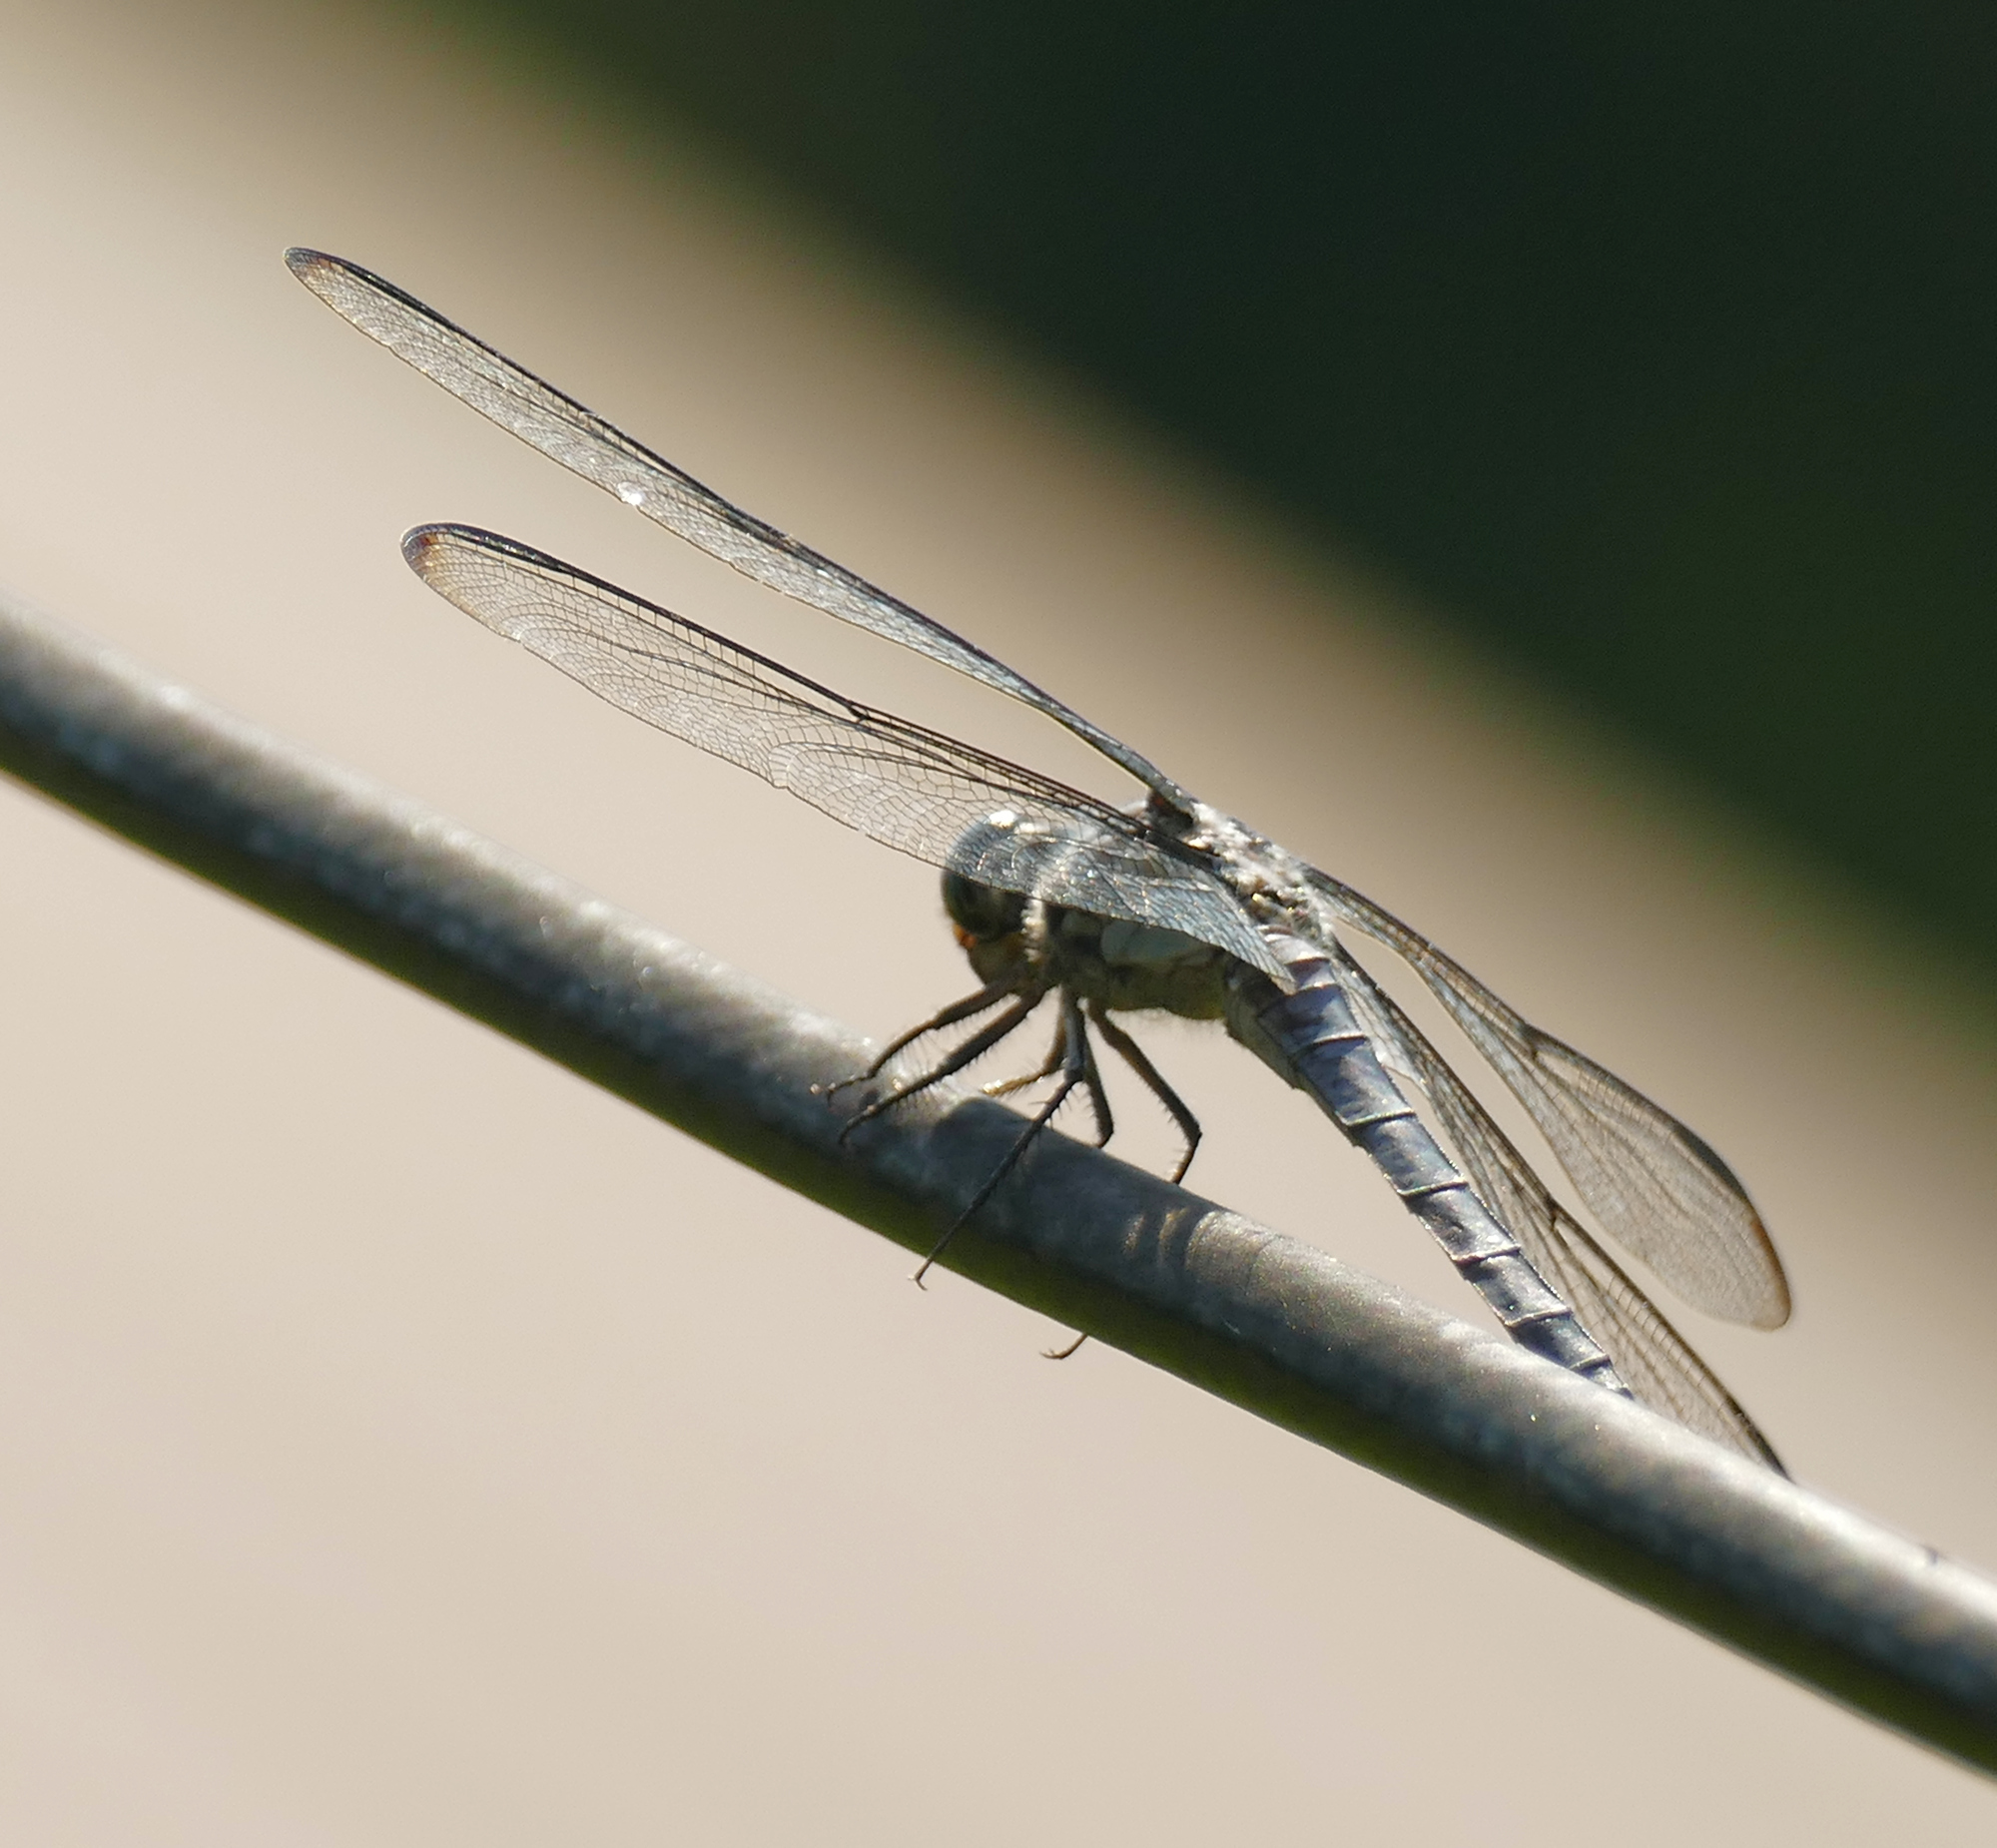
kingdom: Animalia
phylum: Arthropoda
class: Insecta
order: Odonata
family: Libellulidae
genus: Libellula
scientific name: Libellula vibrans
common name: Great blue skimmer
